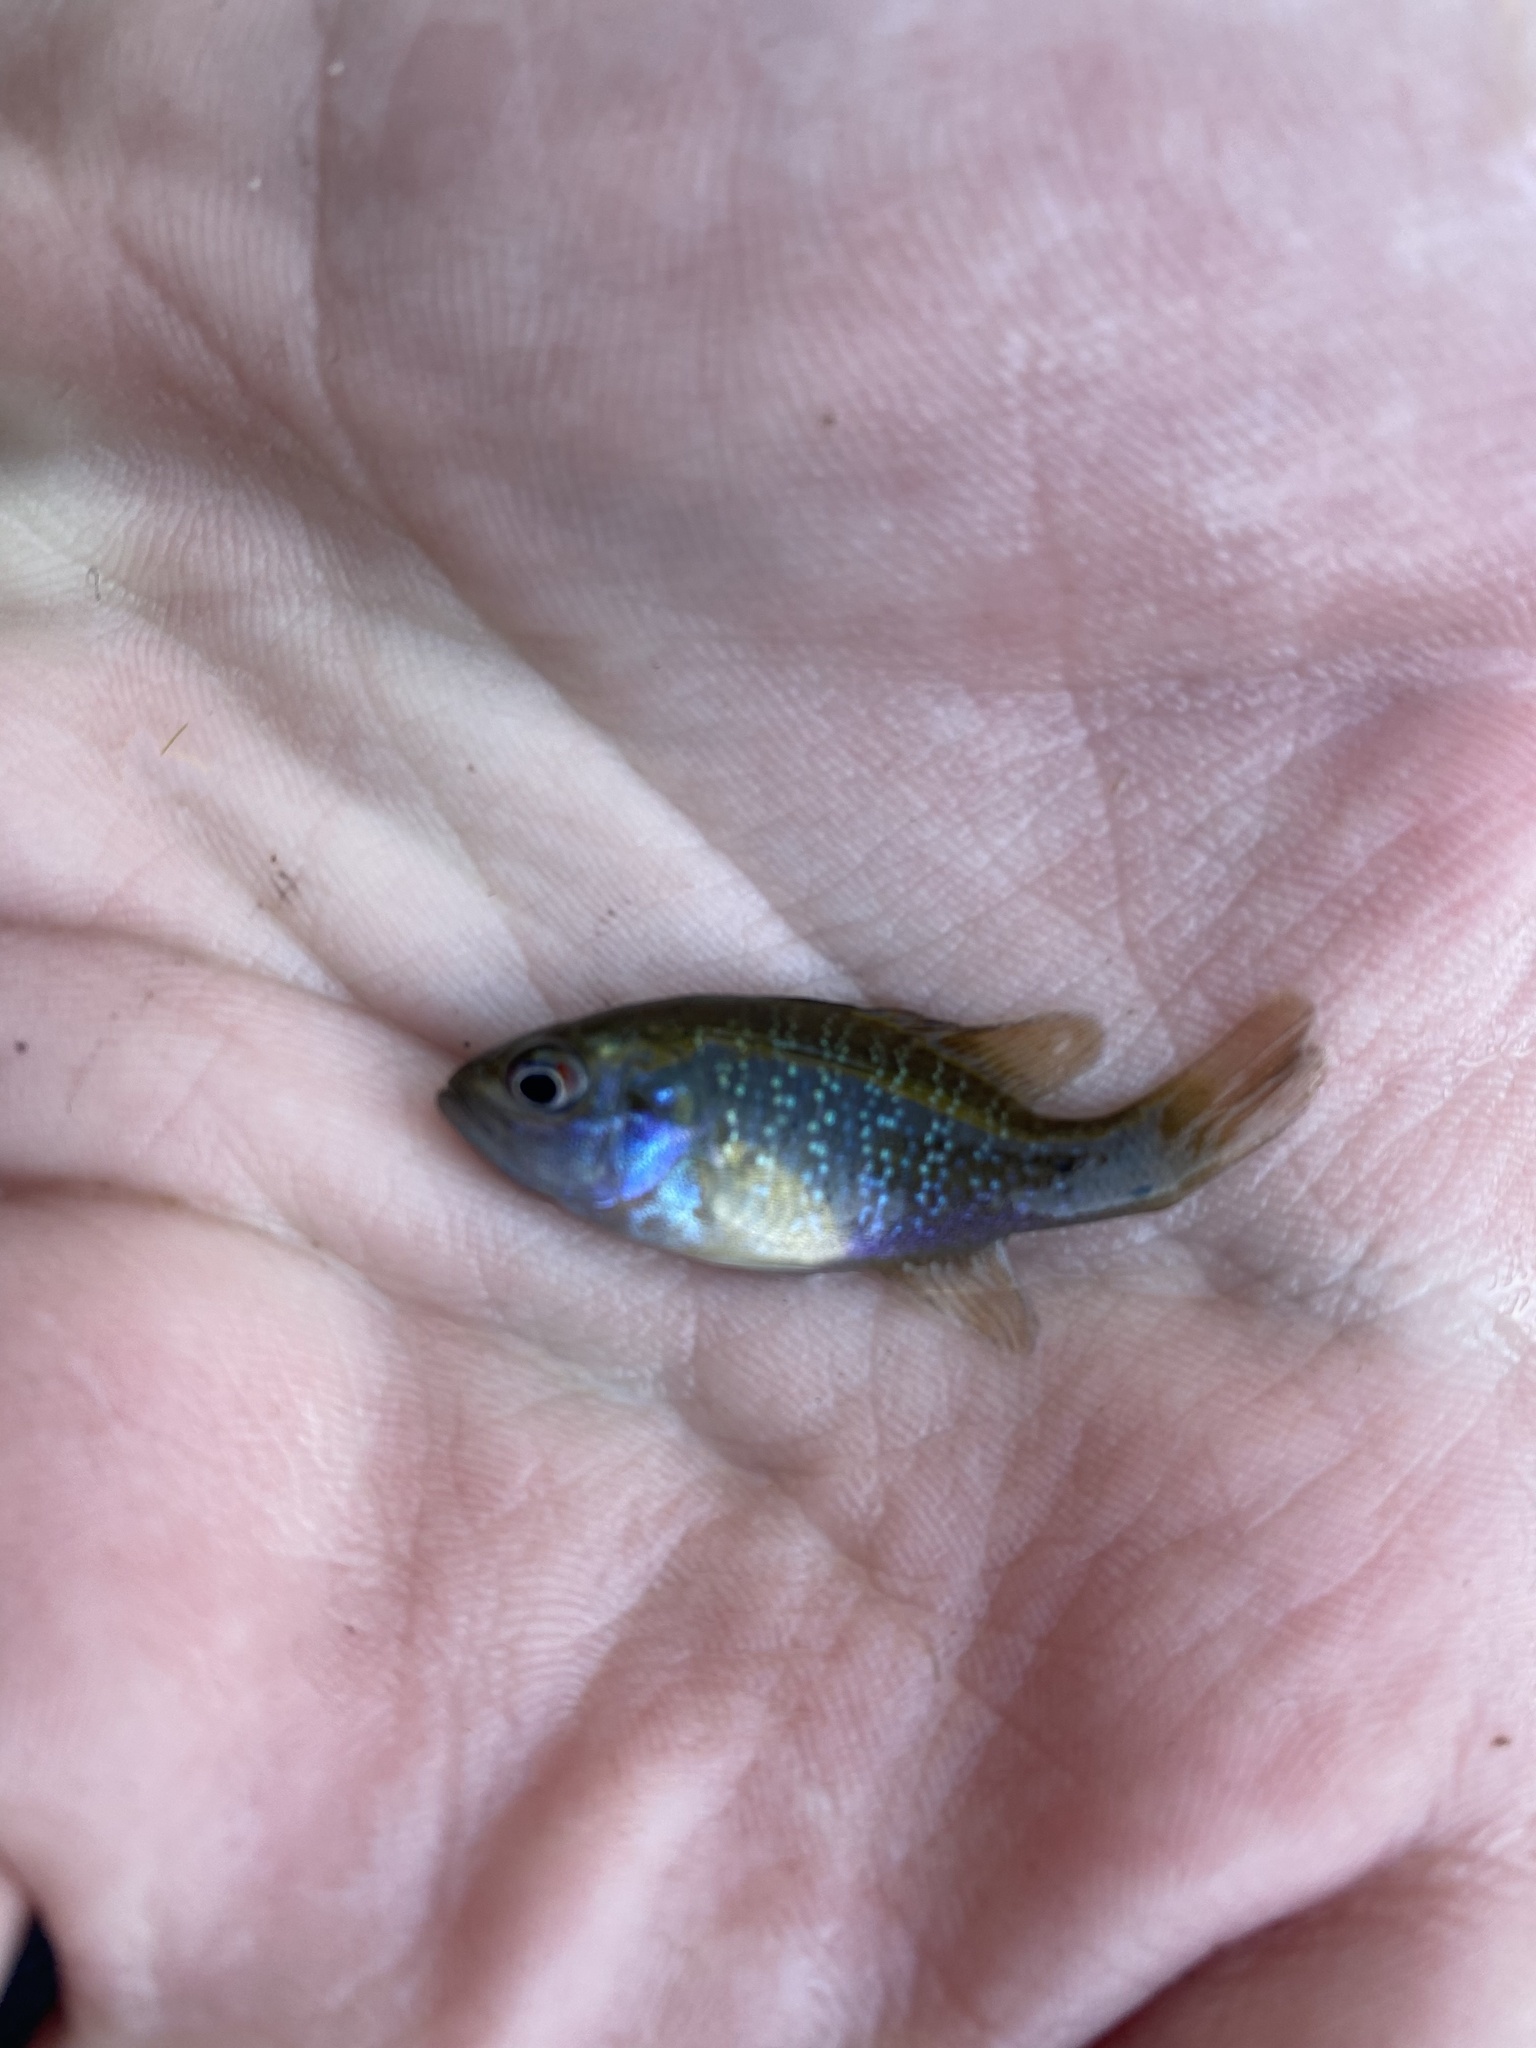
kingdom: Animalia
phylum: Chordata
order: Perciformes
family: Centrarchidae
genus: Lepomis
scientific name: Lepomis cyanellus
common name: Green sunfish
